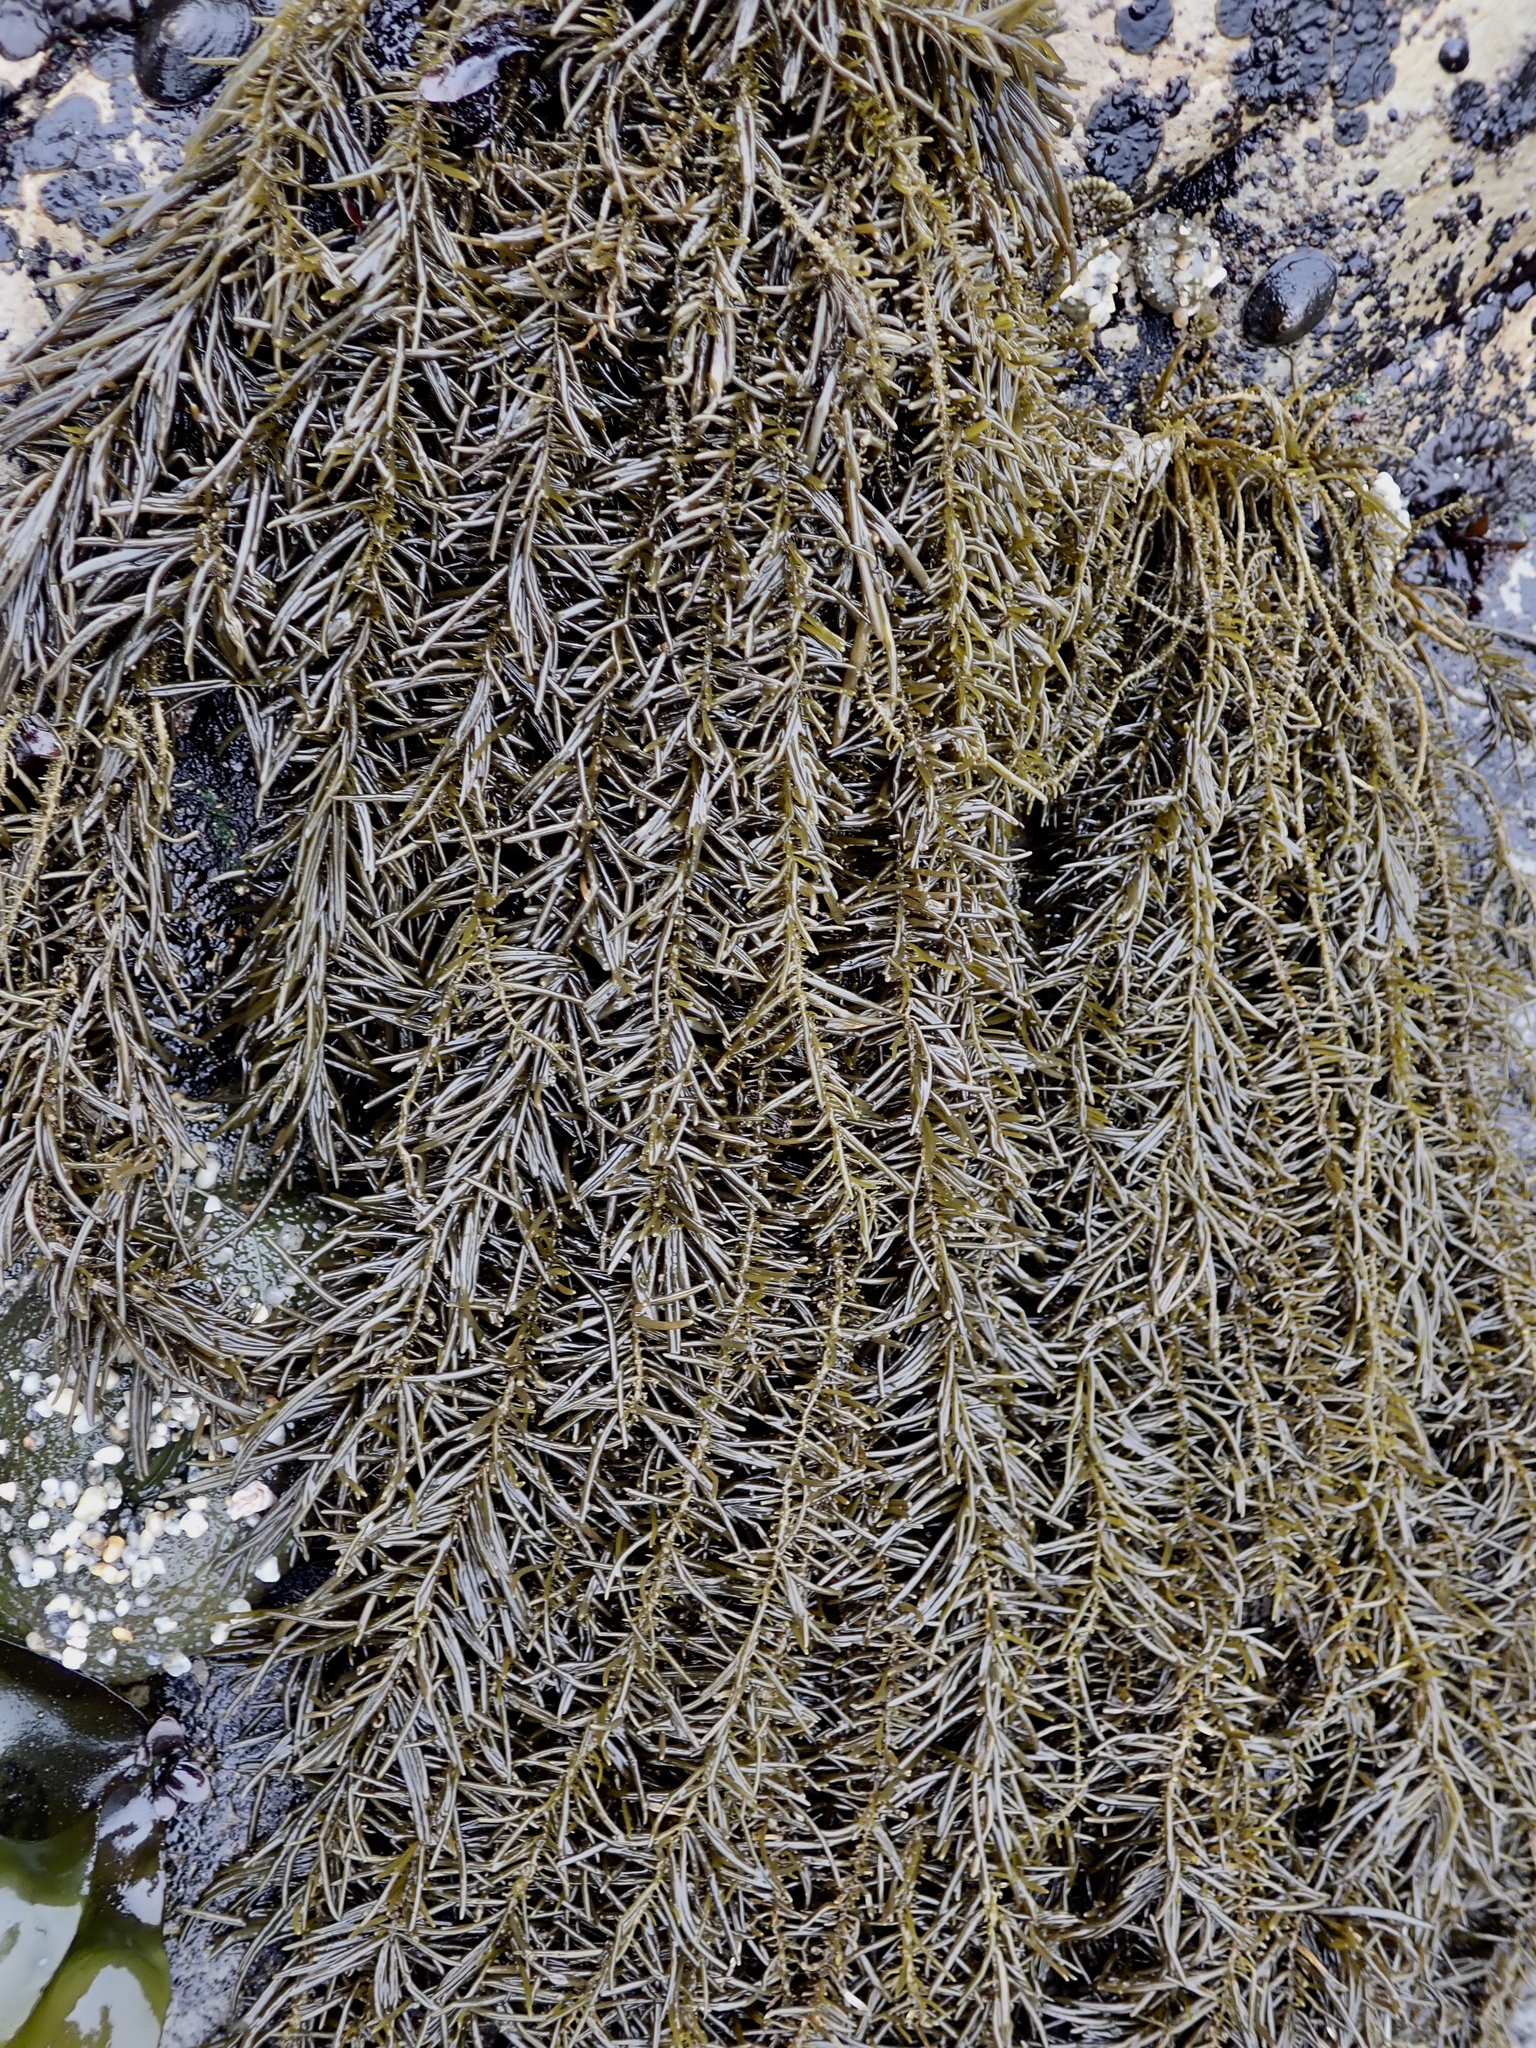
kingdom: Chromista
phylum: Ochrophyta
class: Phaeophyceae
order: Scytosiphonales
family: Scytosiphonaceae
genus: Analipus
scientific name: Analipus japonicus
